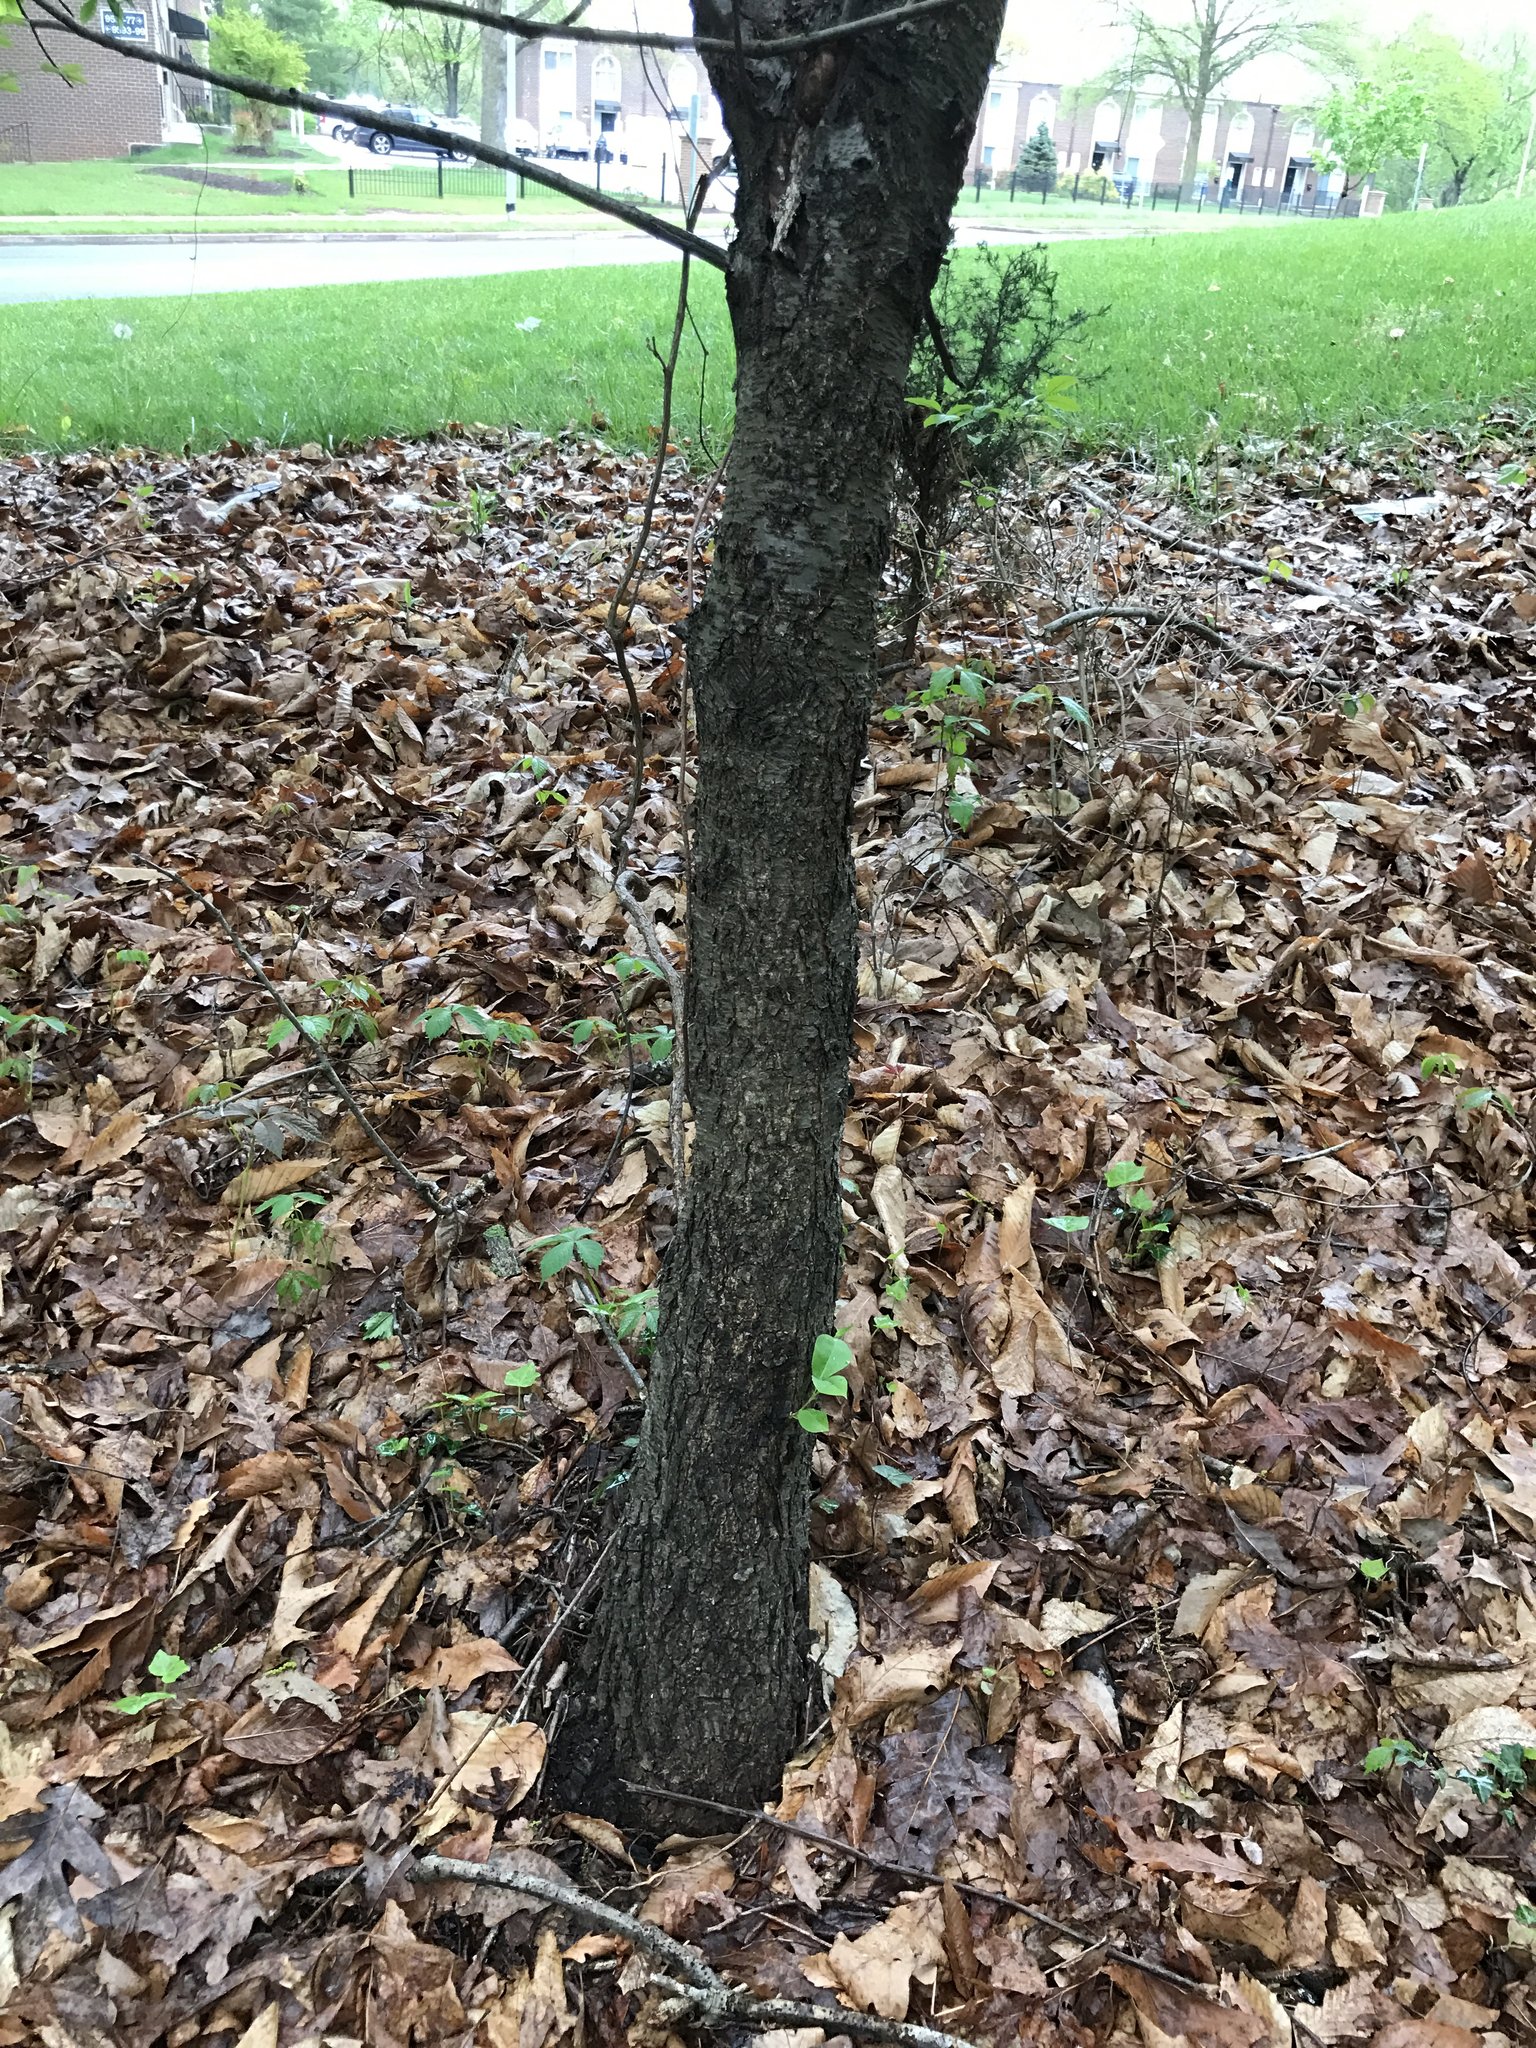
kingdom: Plantae
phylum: Tracheophyta
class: Magnoliopsida
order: Rosales
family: Rosaceae
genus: Prunus
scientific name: Prunus serotina
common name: Black cherry
